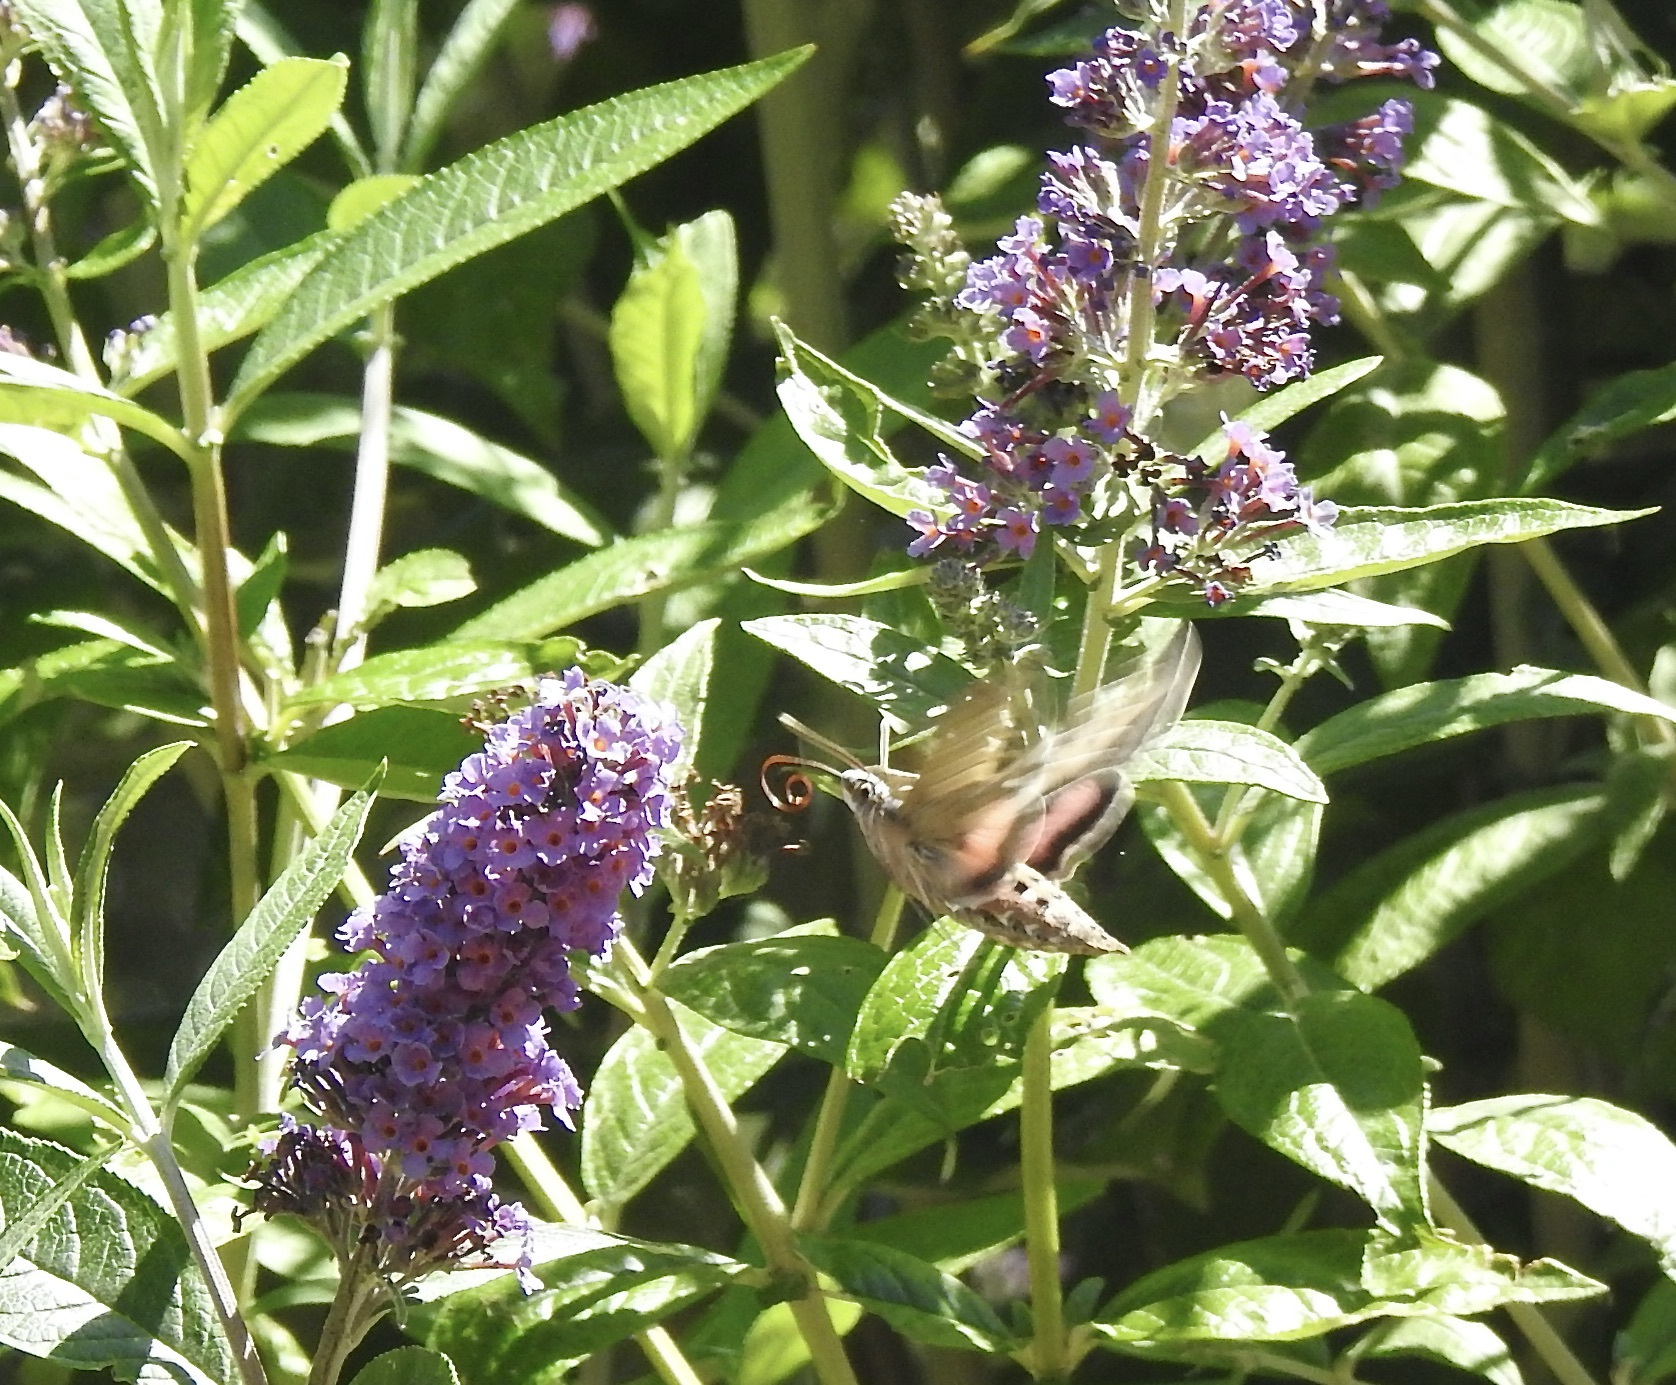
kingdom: Animalia
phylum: Arthropoda
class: Insecta
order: Lepidoptera
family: Sphingidae
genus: Hyles
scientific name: Hyles lineata
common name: White-lined sphinx
